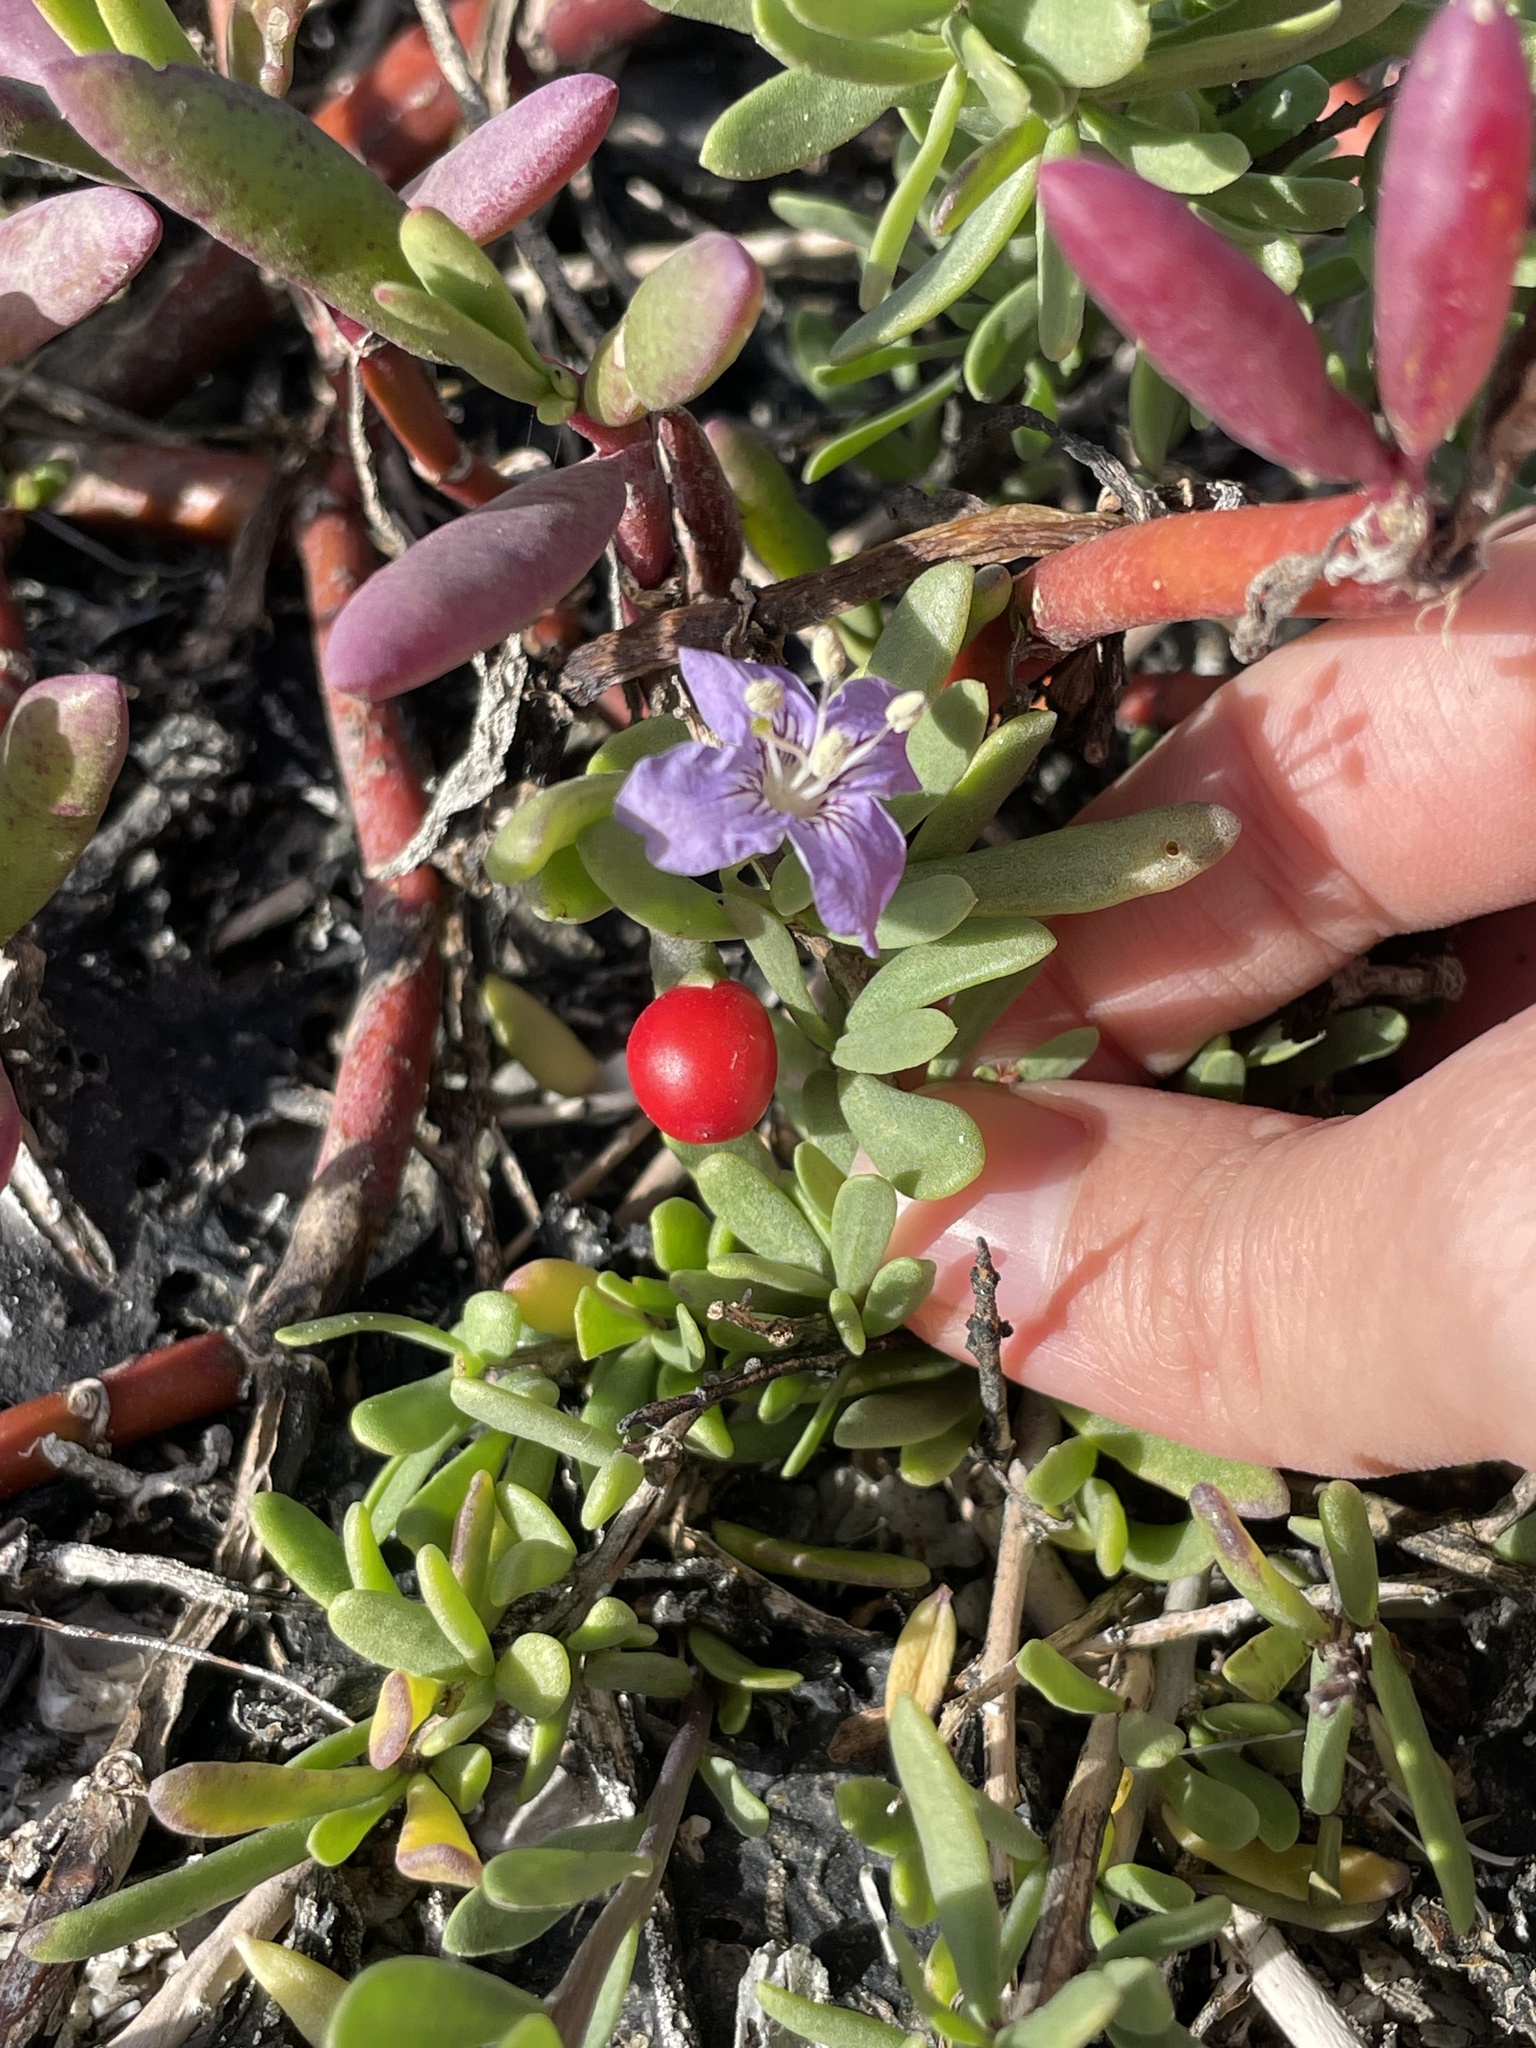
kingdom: Plantae
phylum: Tracheophyta
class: Magnoliopsida
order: Solanales
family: Solanaceae
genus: Lycium
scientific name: Lycium carolinianum
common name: Christmasberry
